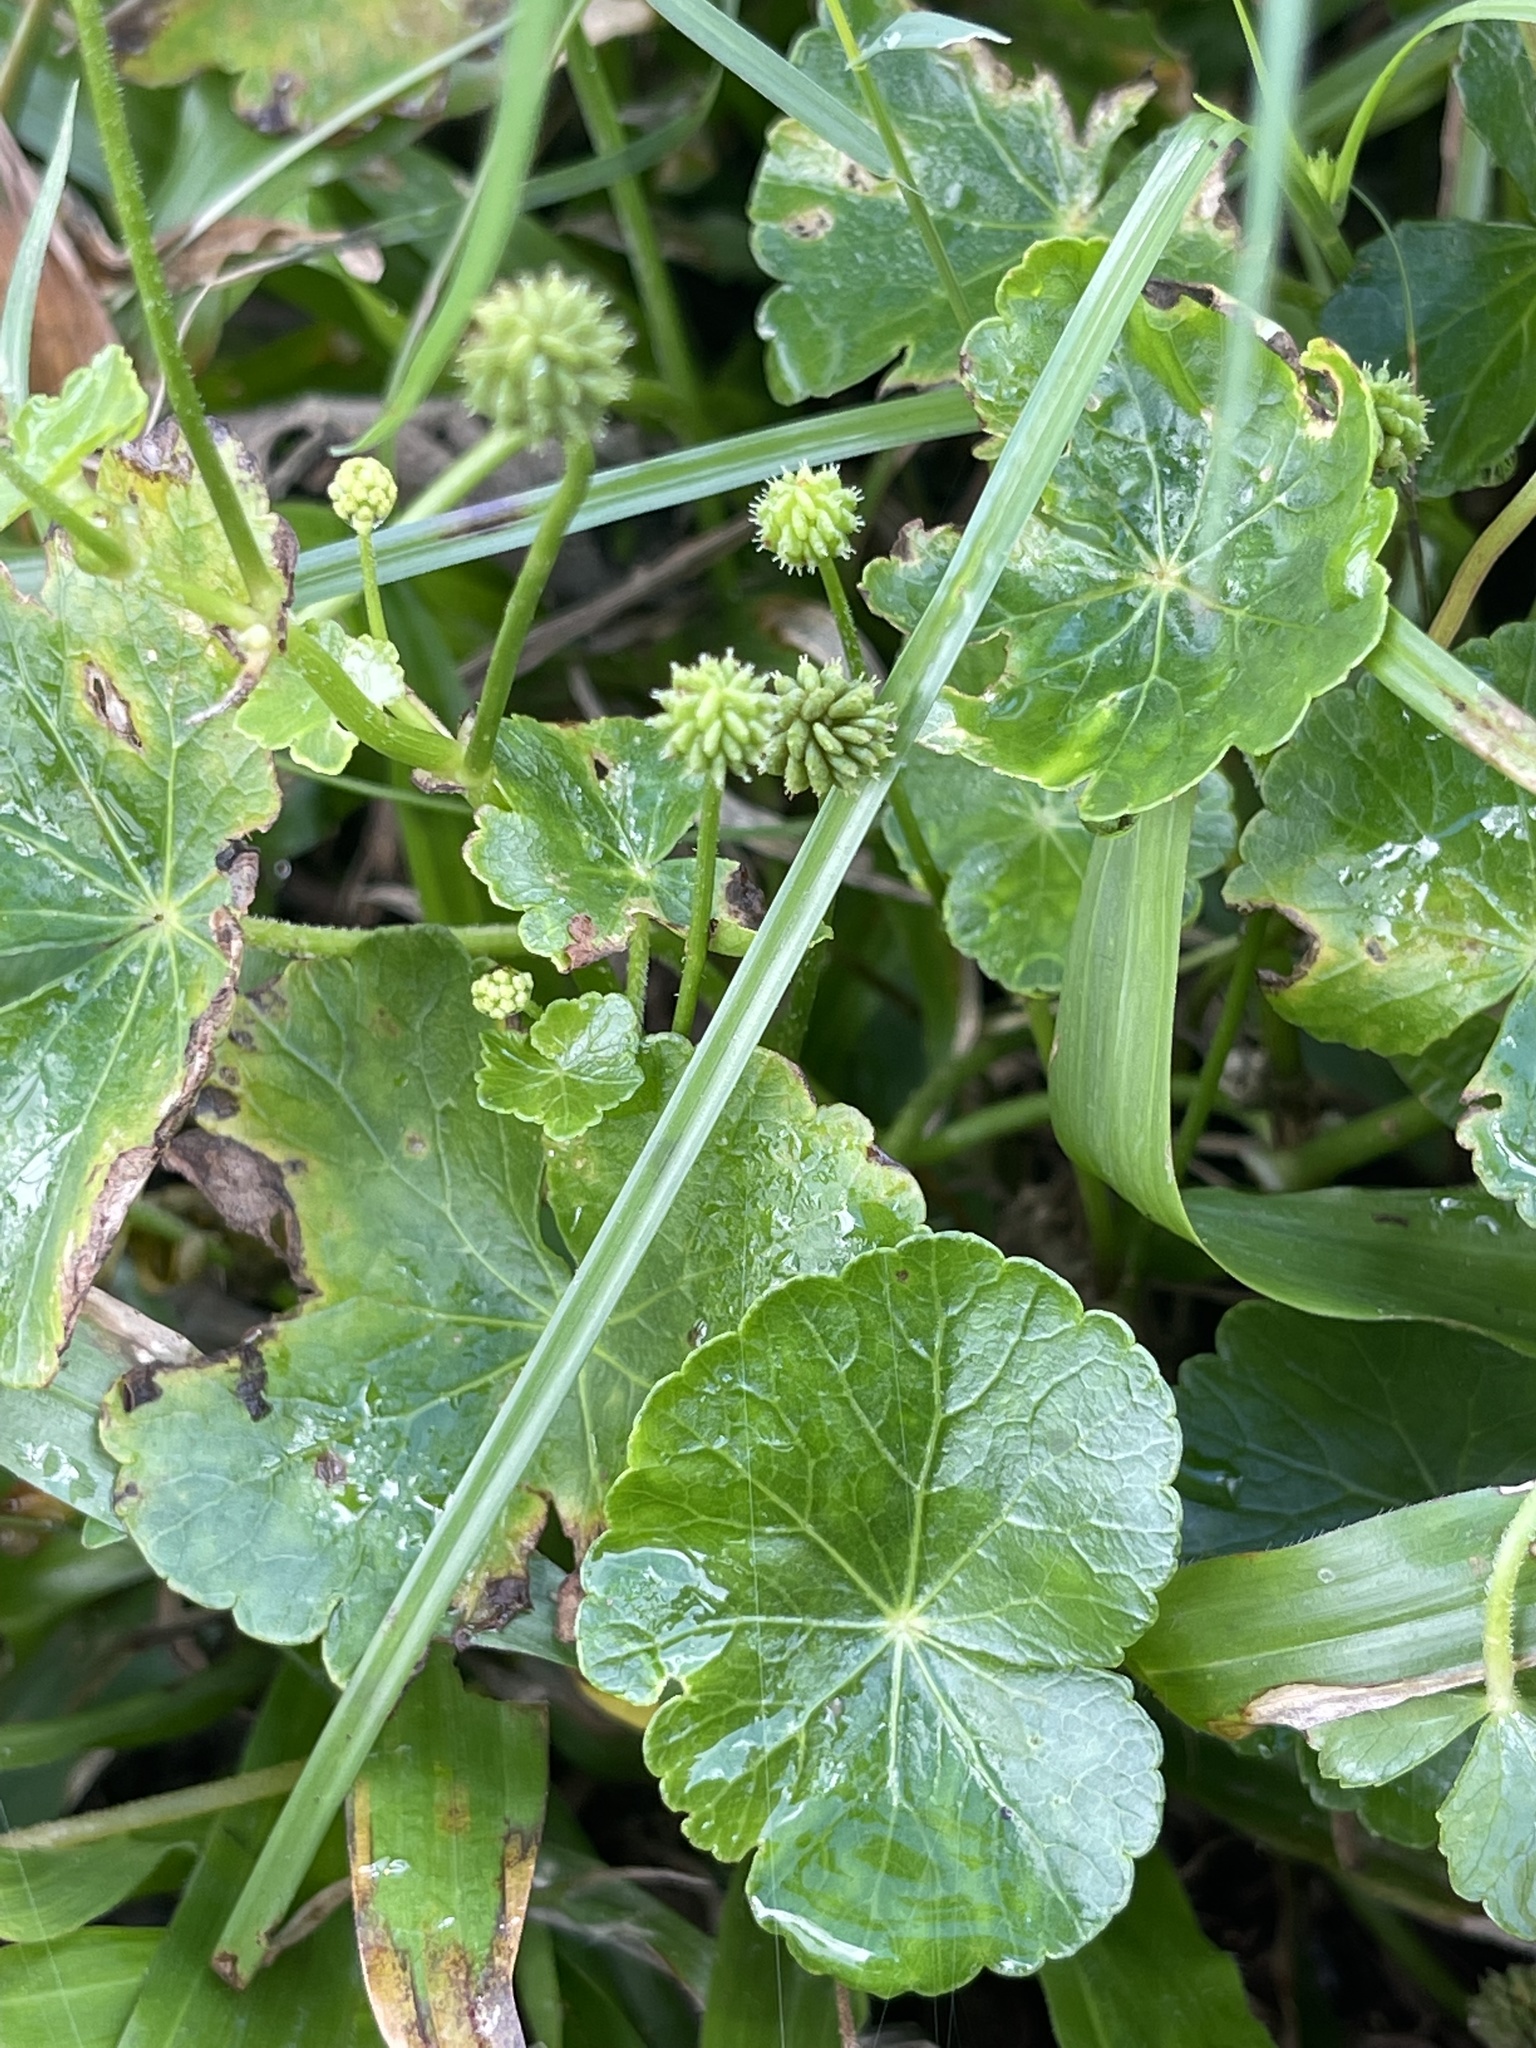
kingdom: Plantae
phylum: Tracheophyta
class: Magnoliopsida
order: Apiales
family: Araliaceae
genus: Hydrocotyle
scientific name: Hydrocotyle ramiflora
